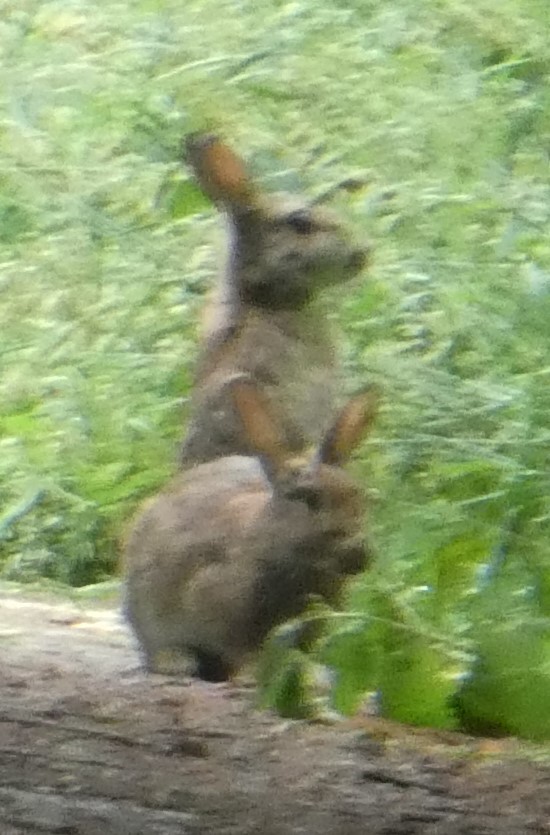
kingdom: Animalia
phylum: Chordata
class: Mammalia
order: Lagomorpha
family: Leporidae
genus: Oryctolagus
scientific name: Oryctolagus cuniculus
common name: European rabbit
